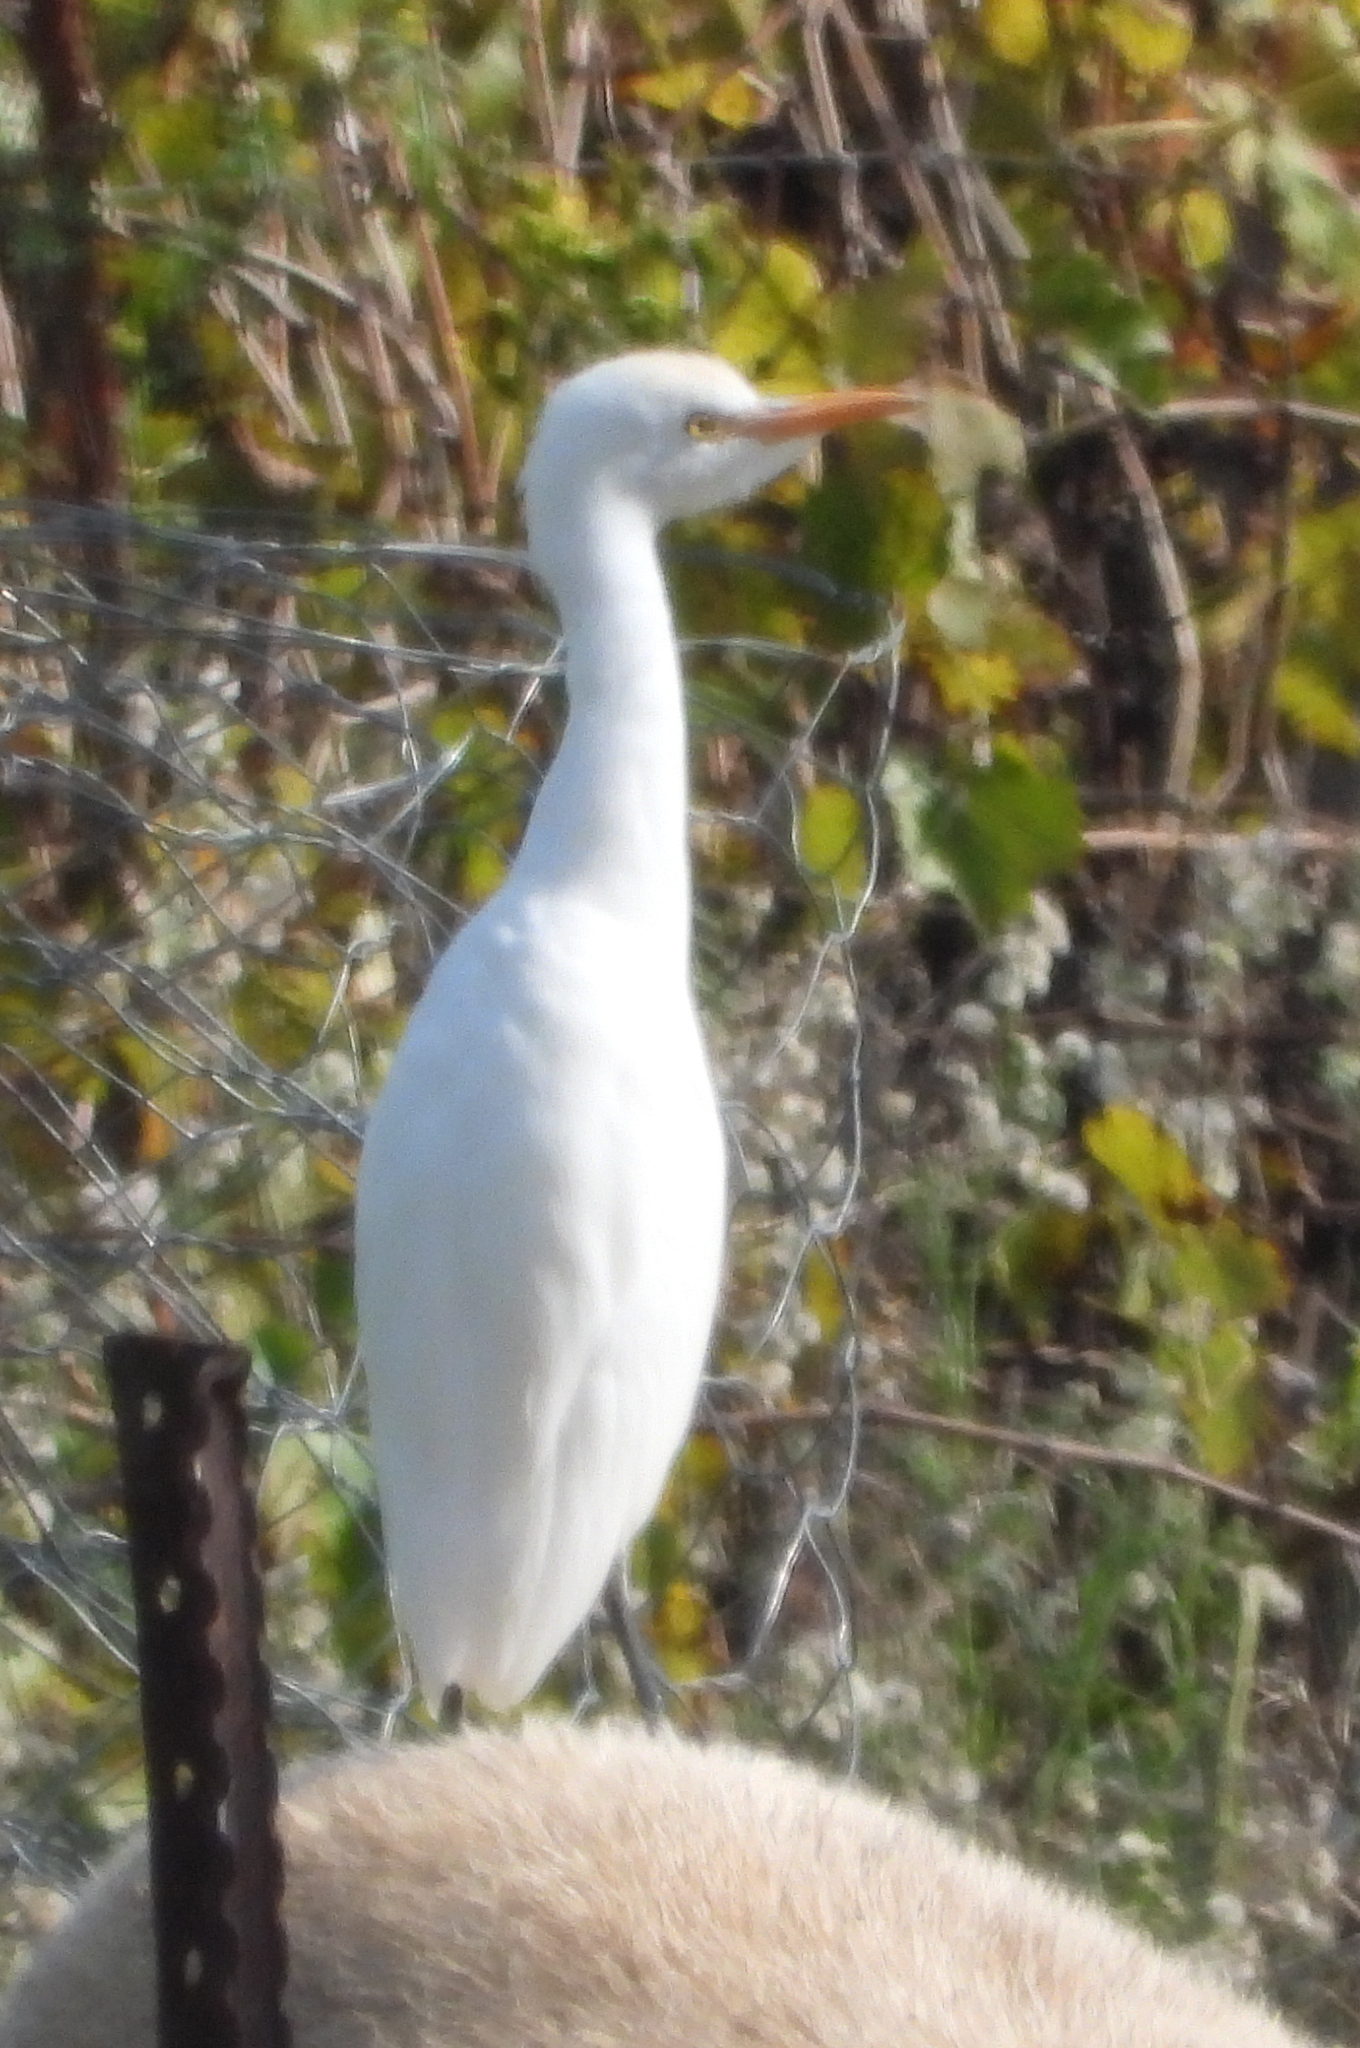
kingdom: Animalia
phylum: Chordata
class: Aves
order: Pelecaniformes
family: Ardeidae
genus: Bubulcus
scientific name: Bubulcus ibis
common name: Cattle egret
